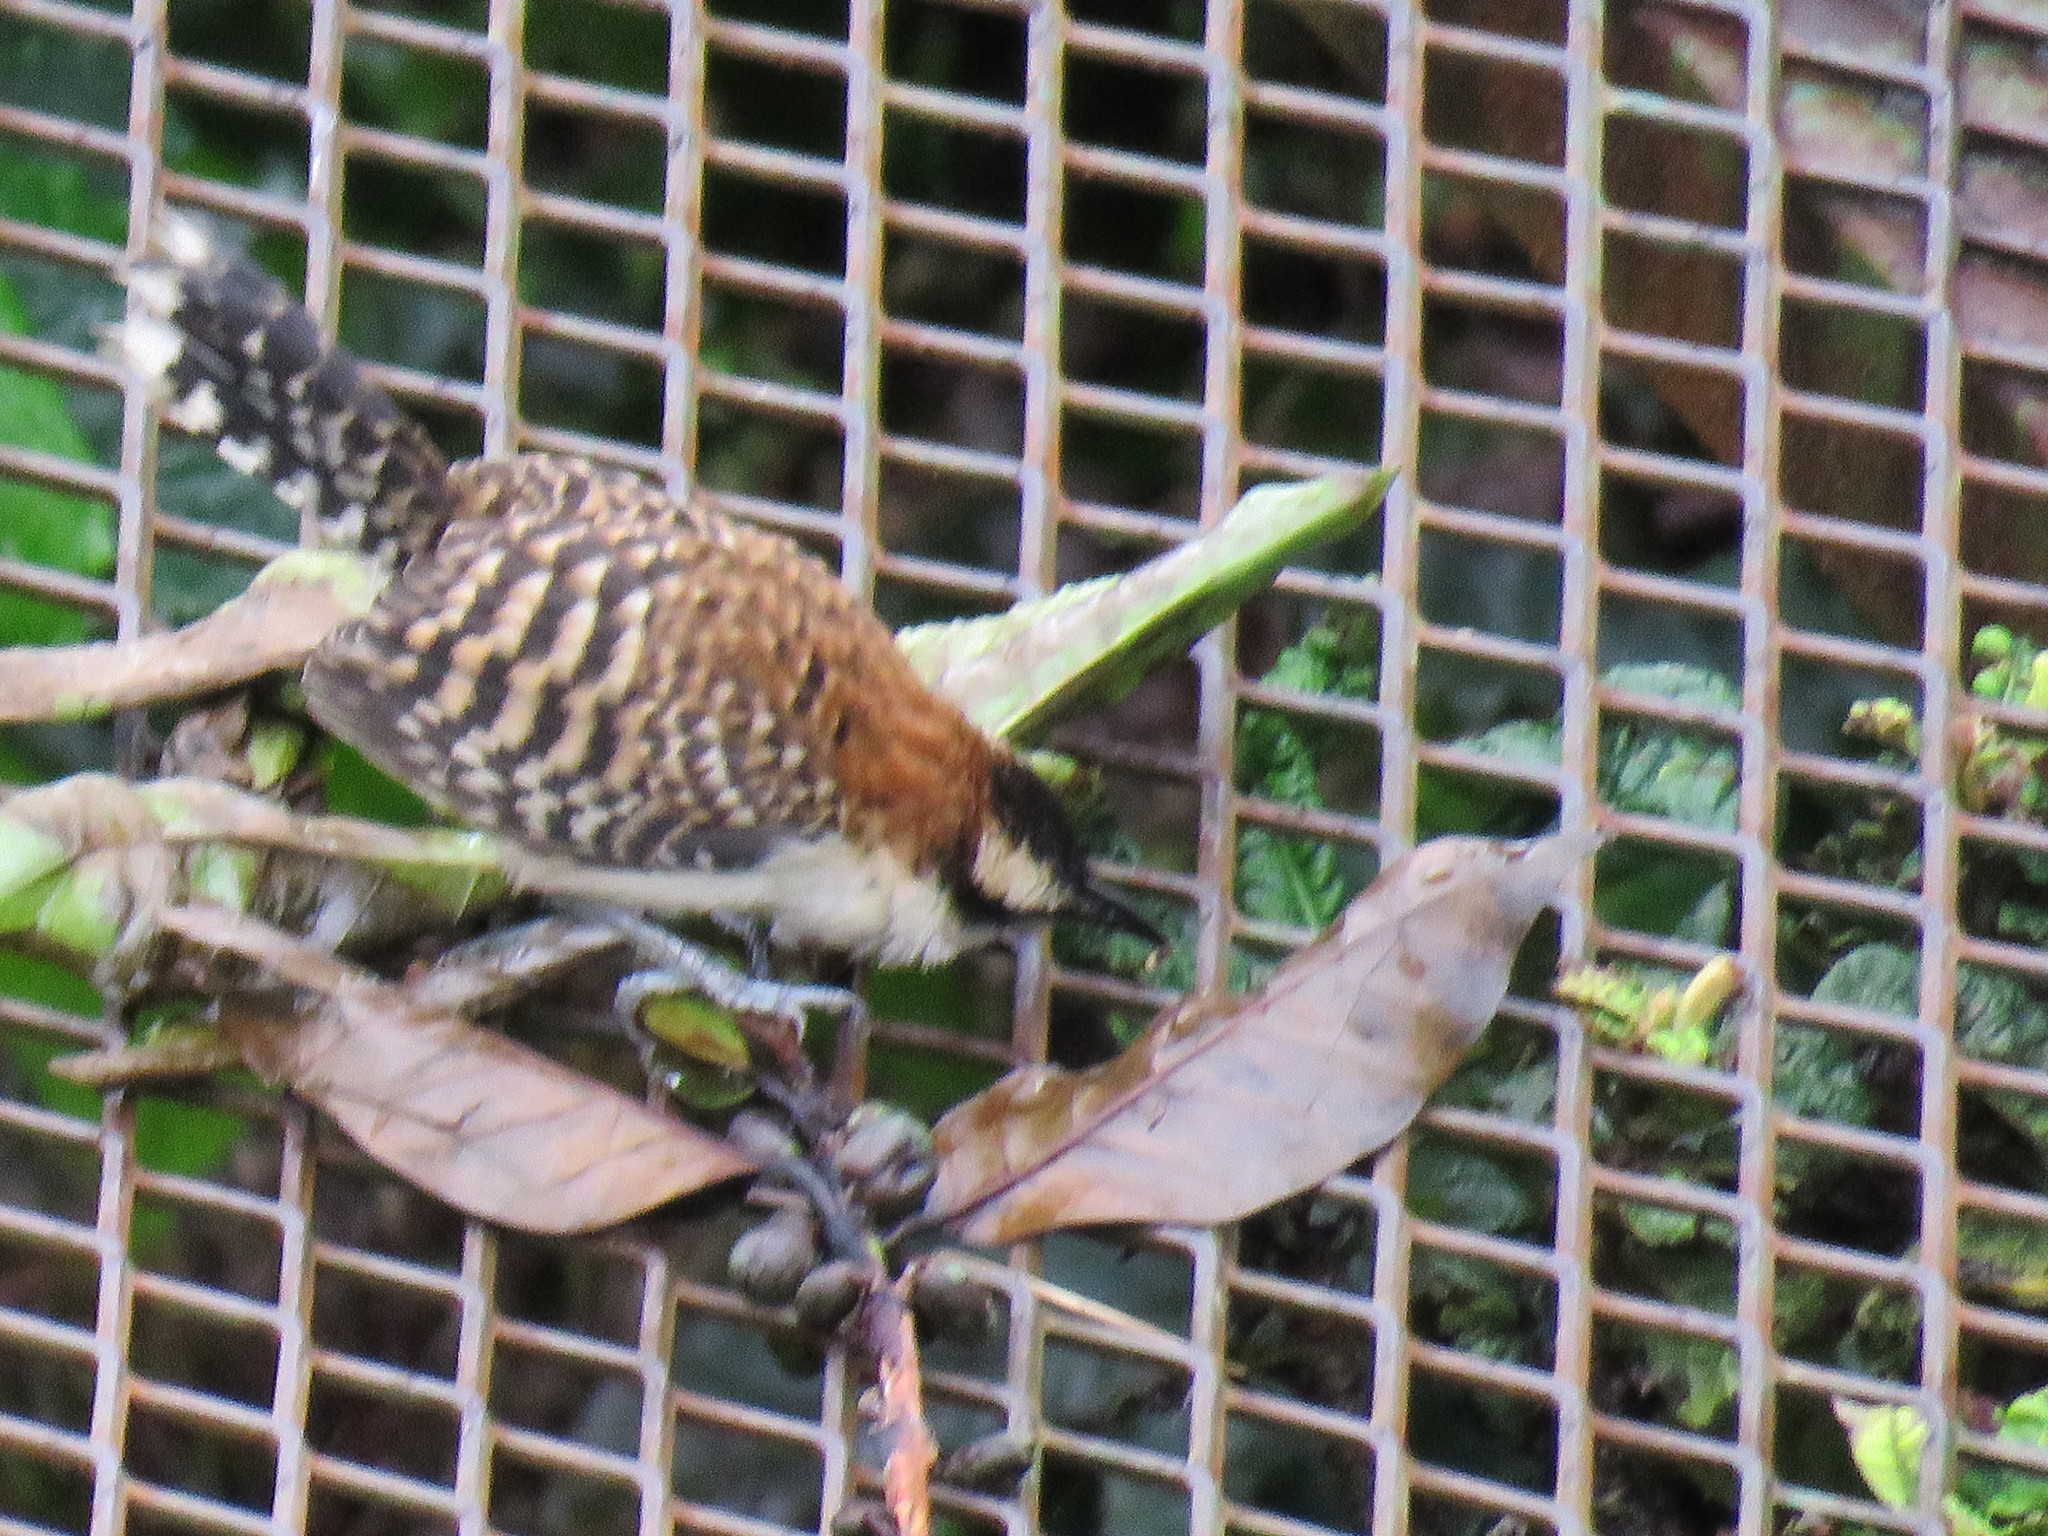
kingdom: Animalia
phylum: Chordata
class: Aves
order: Passeriformes
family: Troglodytidae
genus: Campylorhynchus
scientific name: Campylorhynchus rufinucha
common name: Rufous-naped wren
